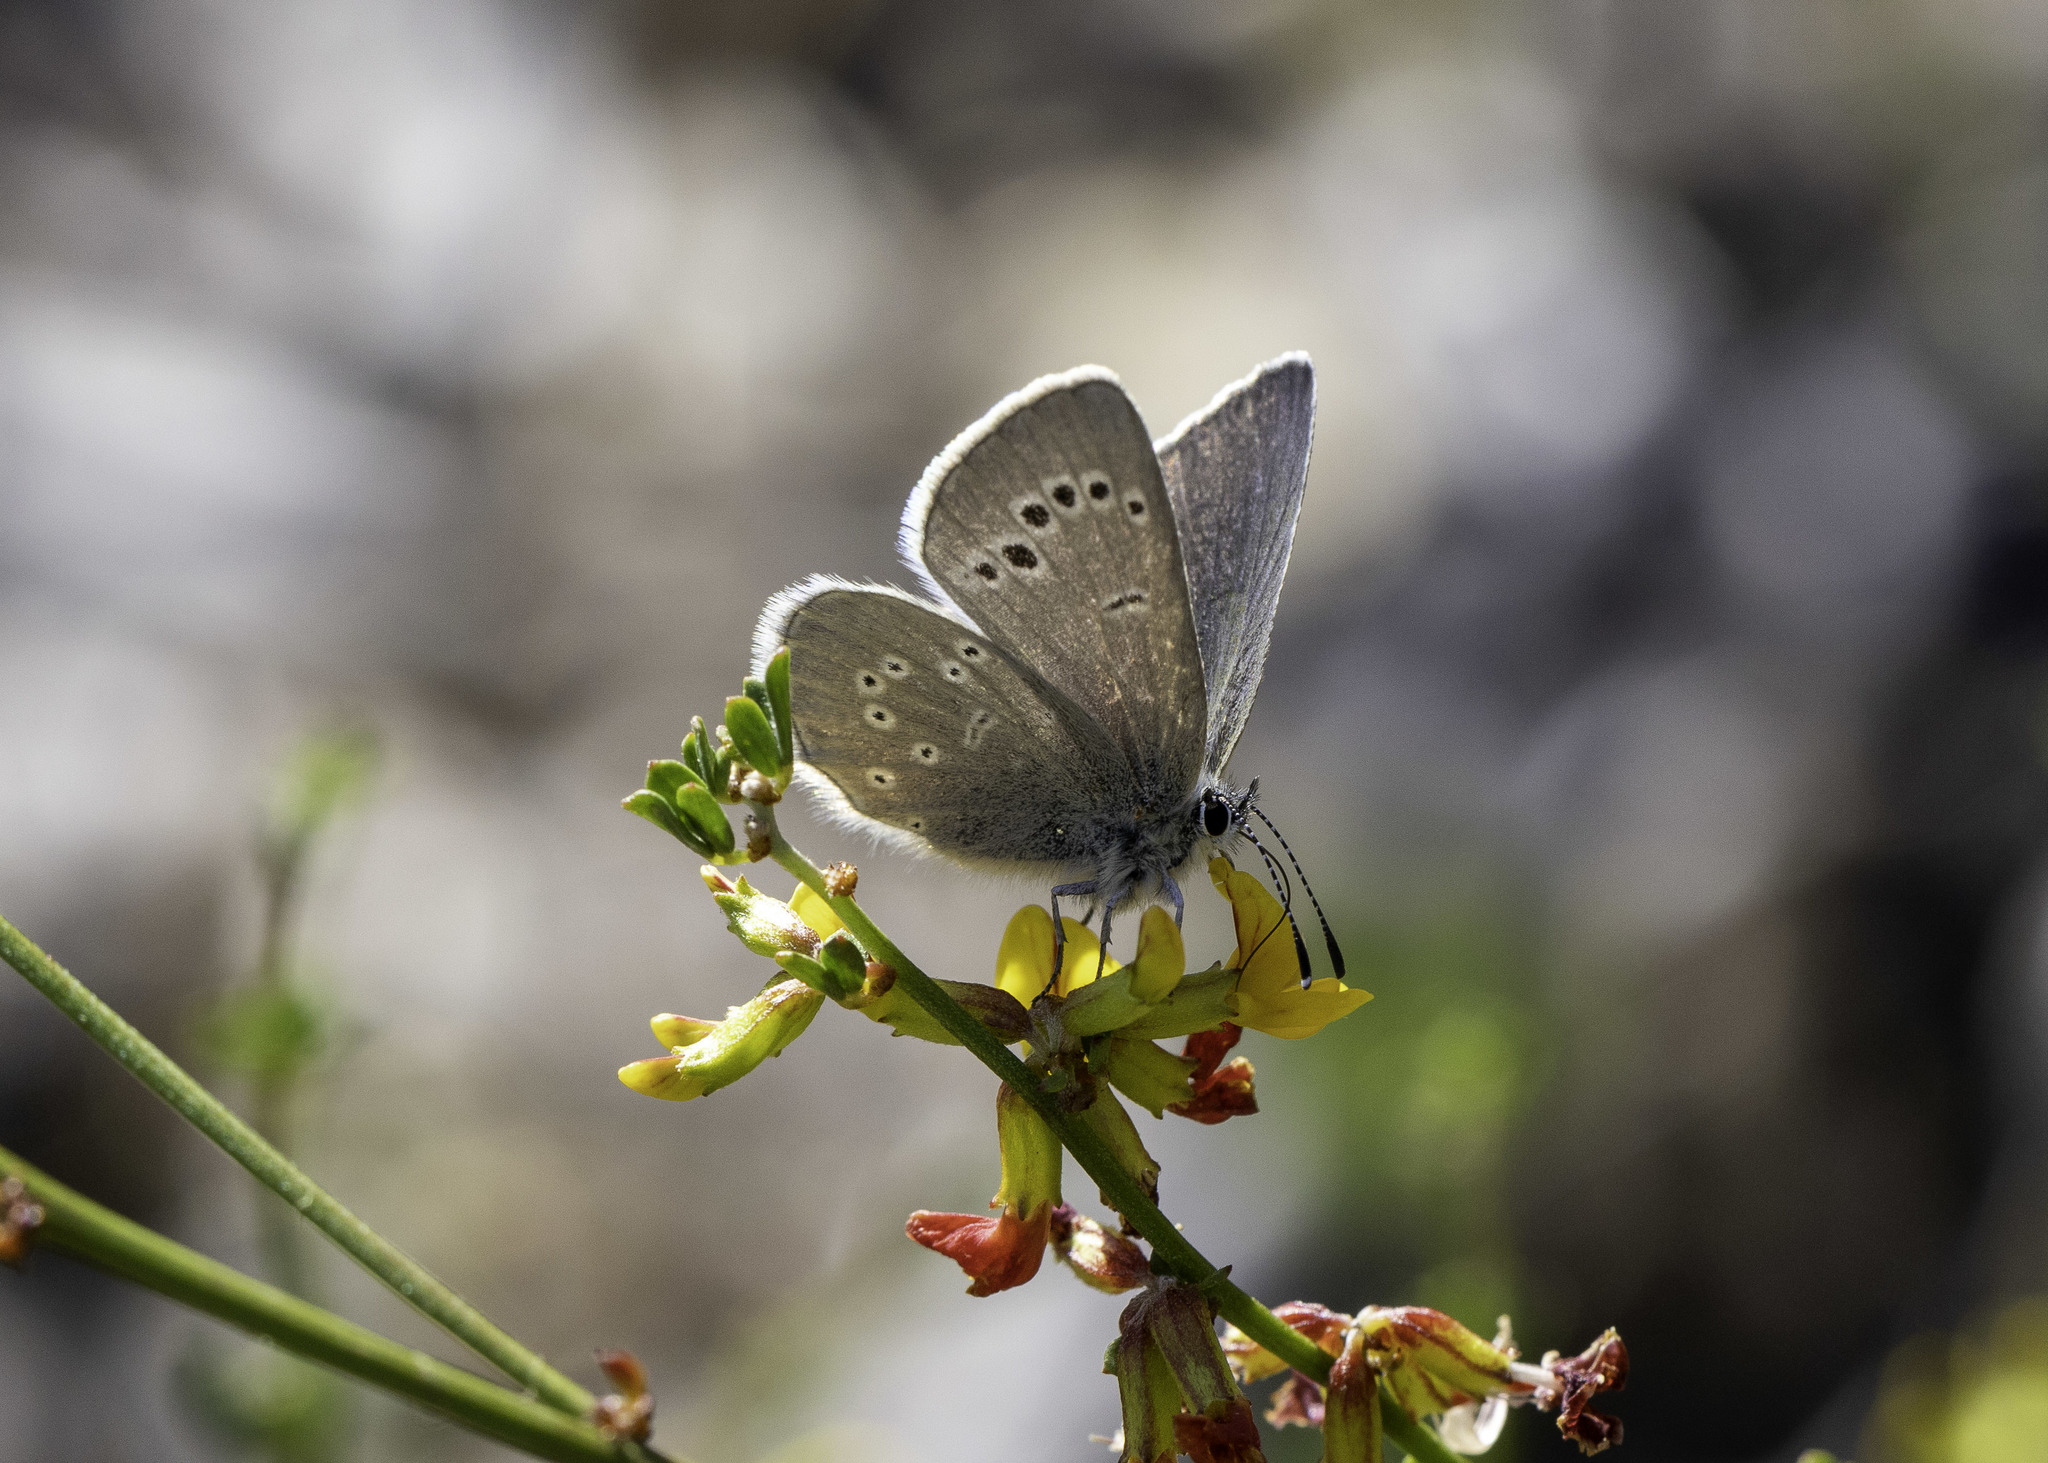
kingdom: Animalia
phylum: Arthropoda
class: Insecta
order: Lepidoptera
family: Lycaenidae
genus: Glaucopsyche
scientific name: Glaucopsyche lygdamus
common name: Silvery blue
